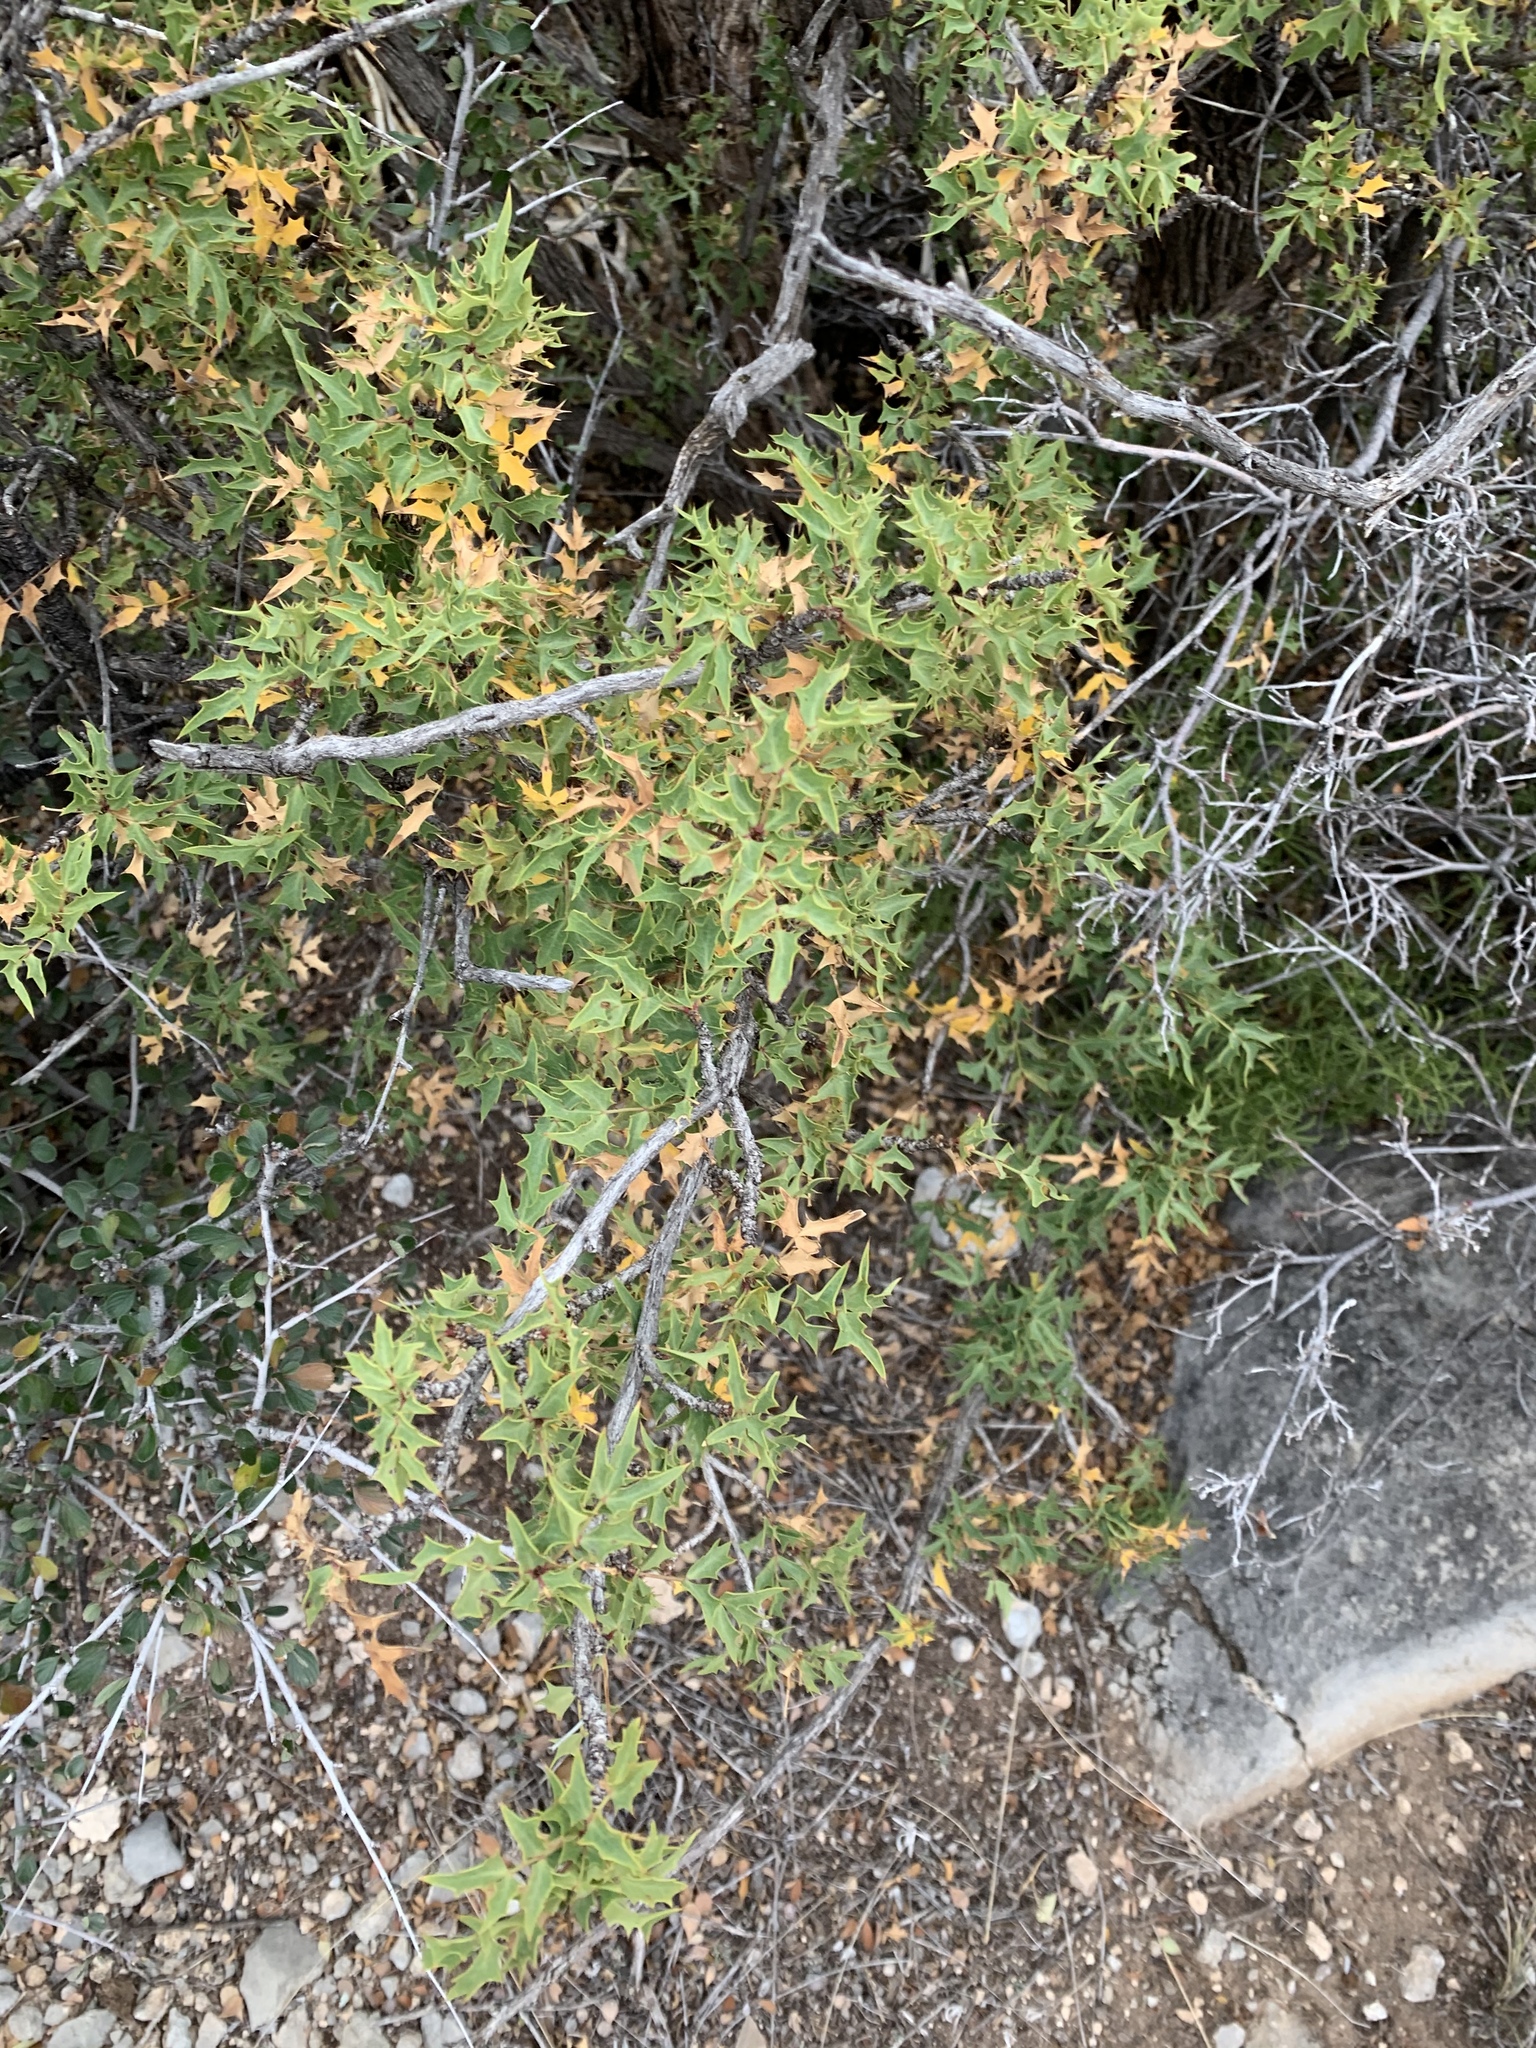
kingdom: Plantae
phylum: Tracheophyta
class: Magnoliopsida
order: Ranunculales
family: Berberidaceae
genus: Alloberberis
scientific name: Alloberberis haematocarpa
